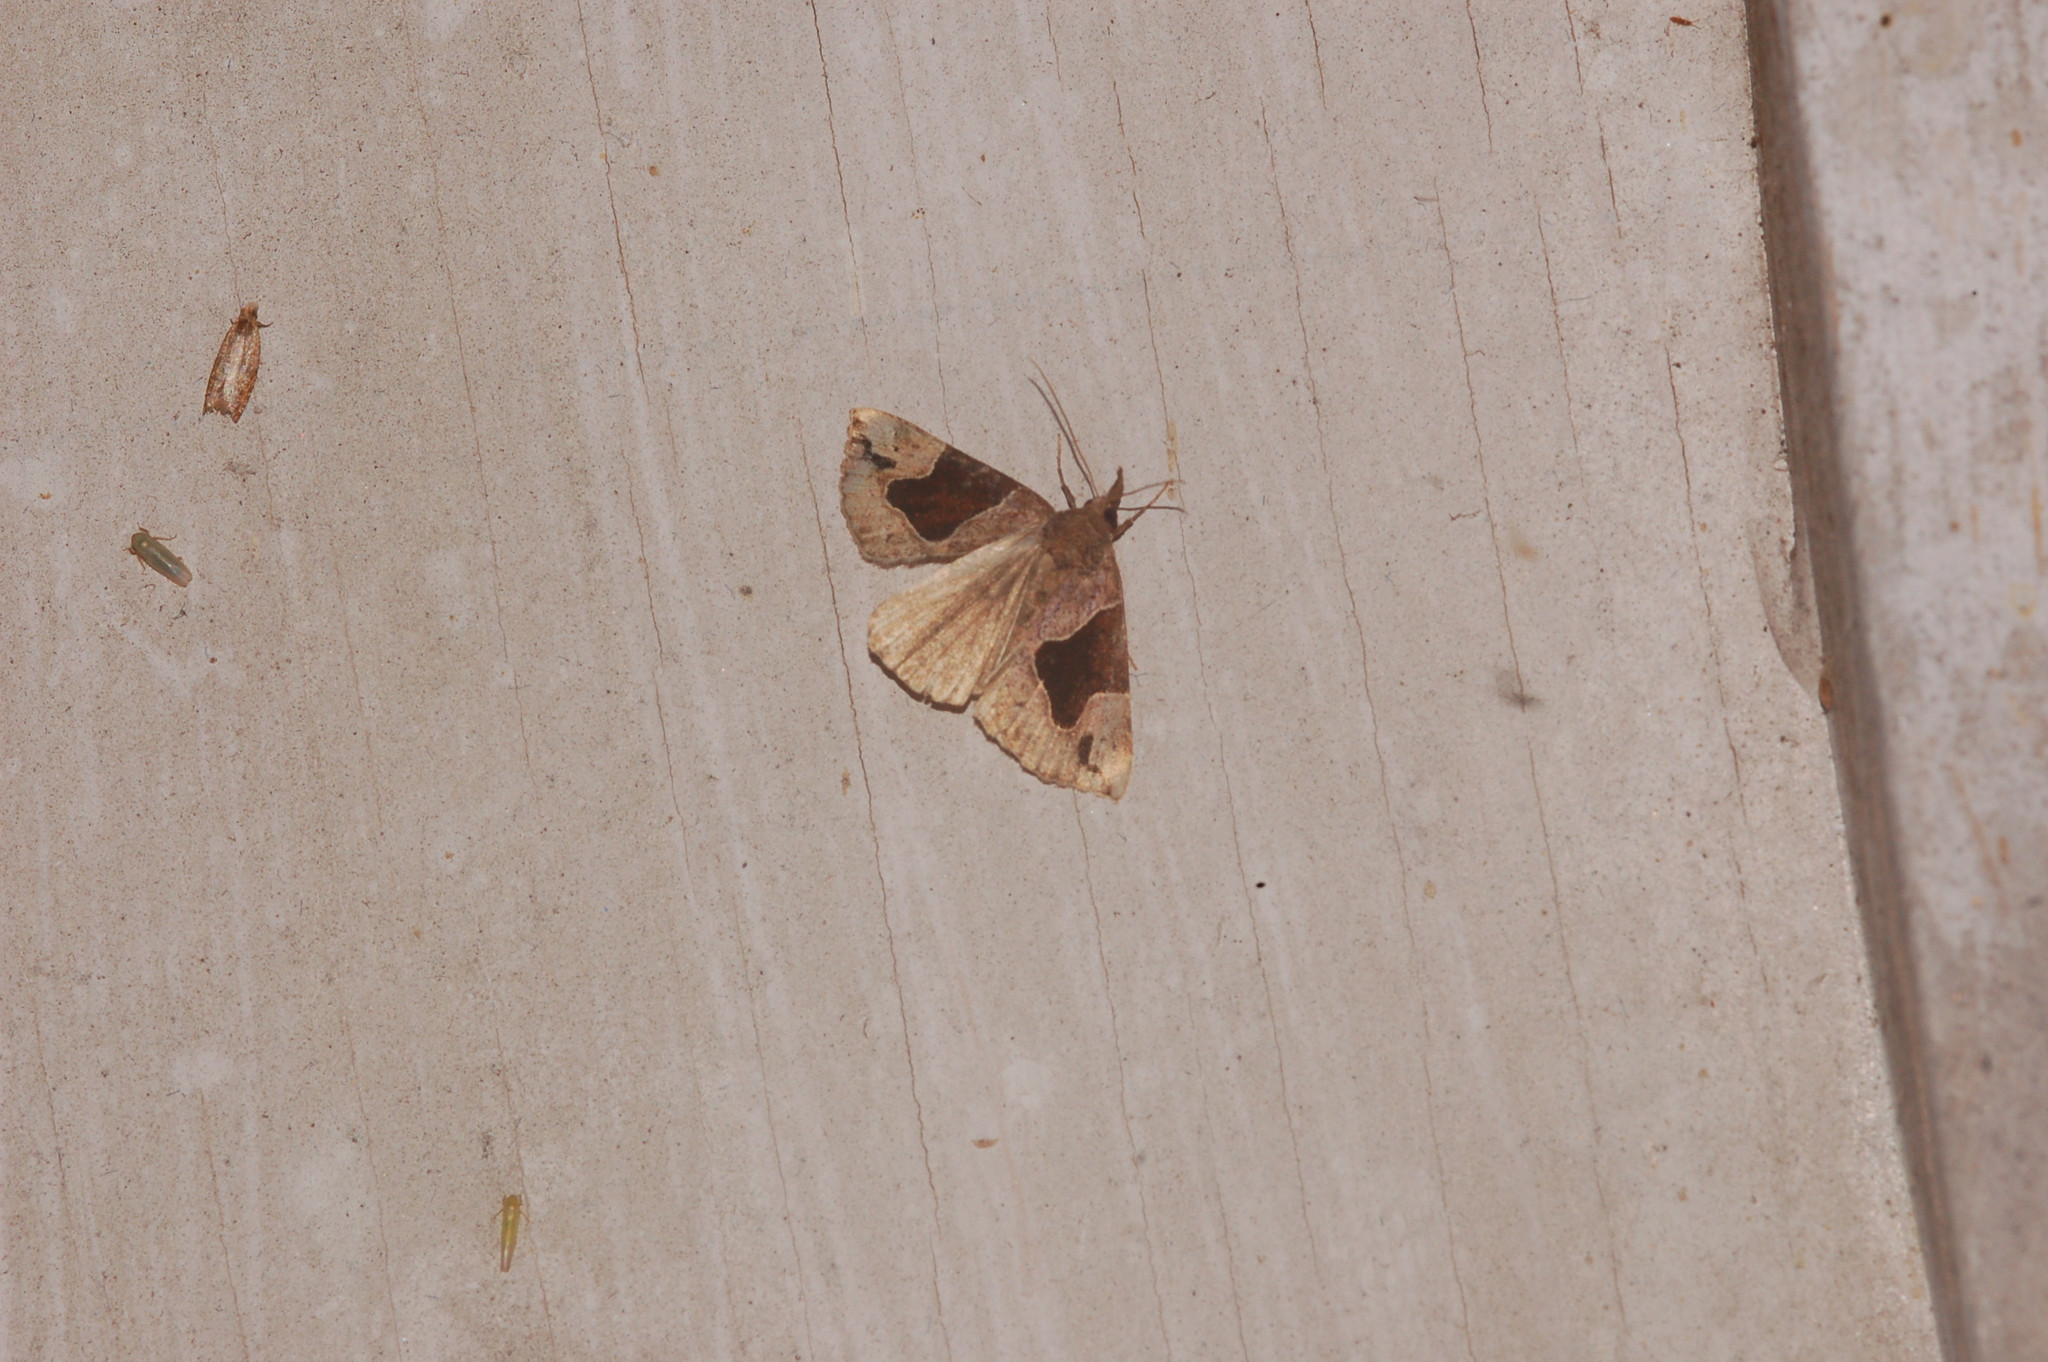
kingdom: Animalia
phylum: Arthropoda
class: Insecta
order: Lepidoptera
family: Erebidae
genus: Hypena
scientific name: Hypena manalis
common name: Flowing-line bomolocha moth
